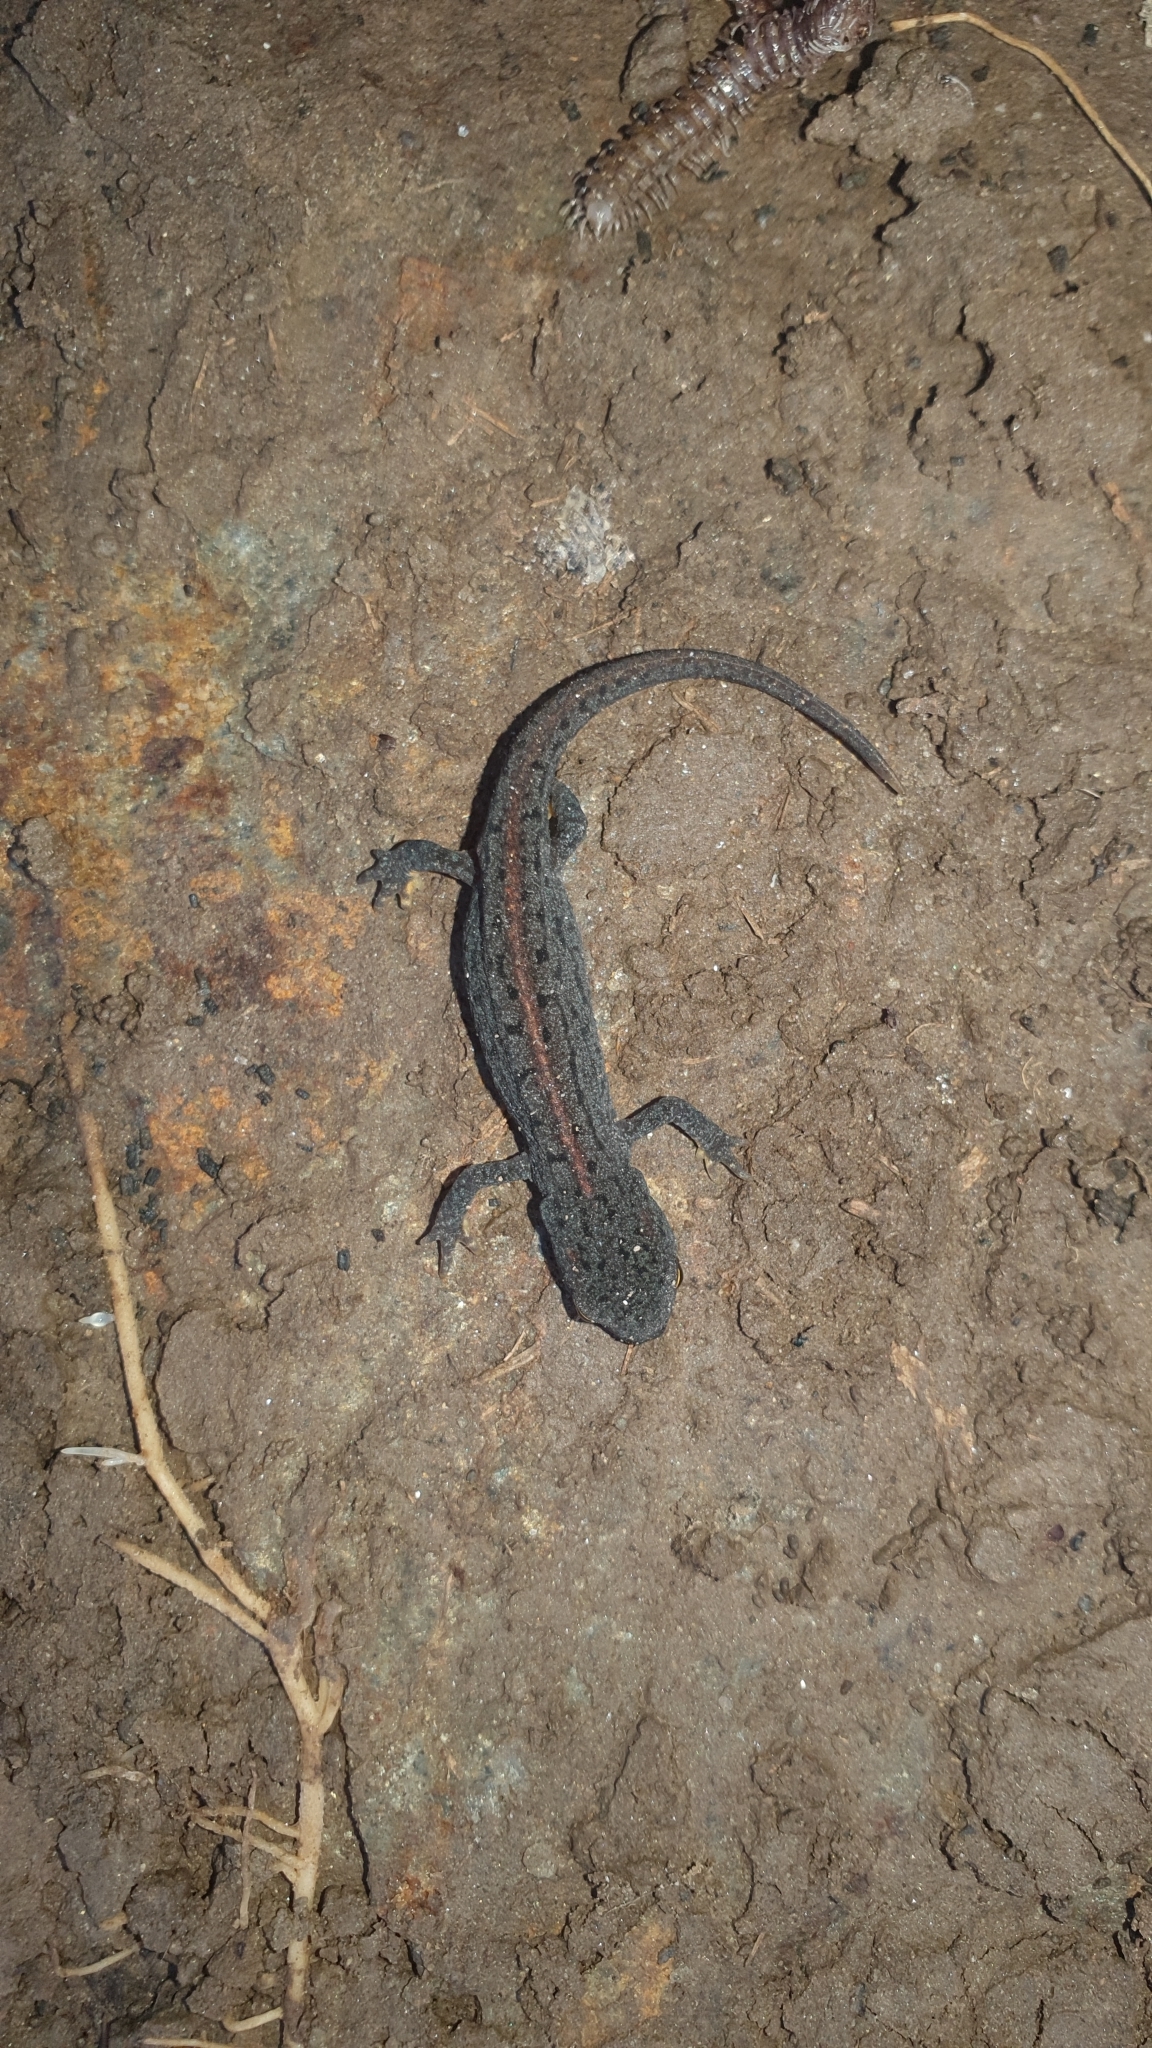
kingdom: Animalia
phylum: Chordata
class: Amphibia
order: Caudata
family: Salamandridae
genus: Lissotriton
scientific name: Lissotriton boscai
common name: Bosca's newt
